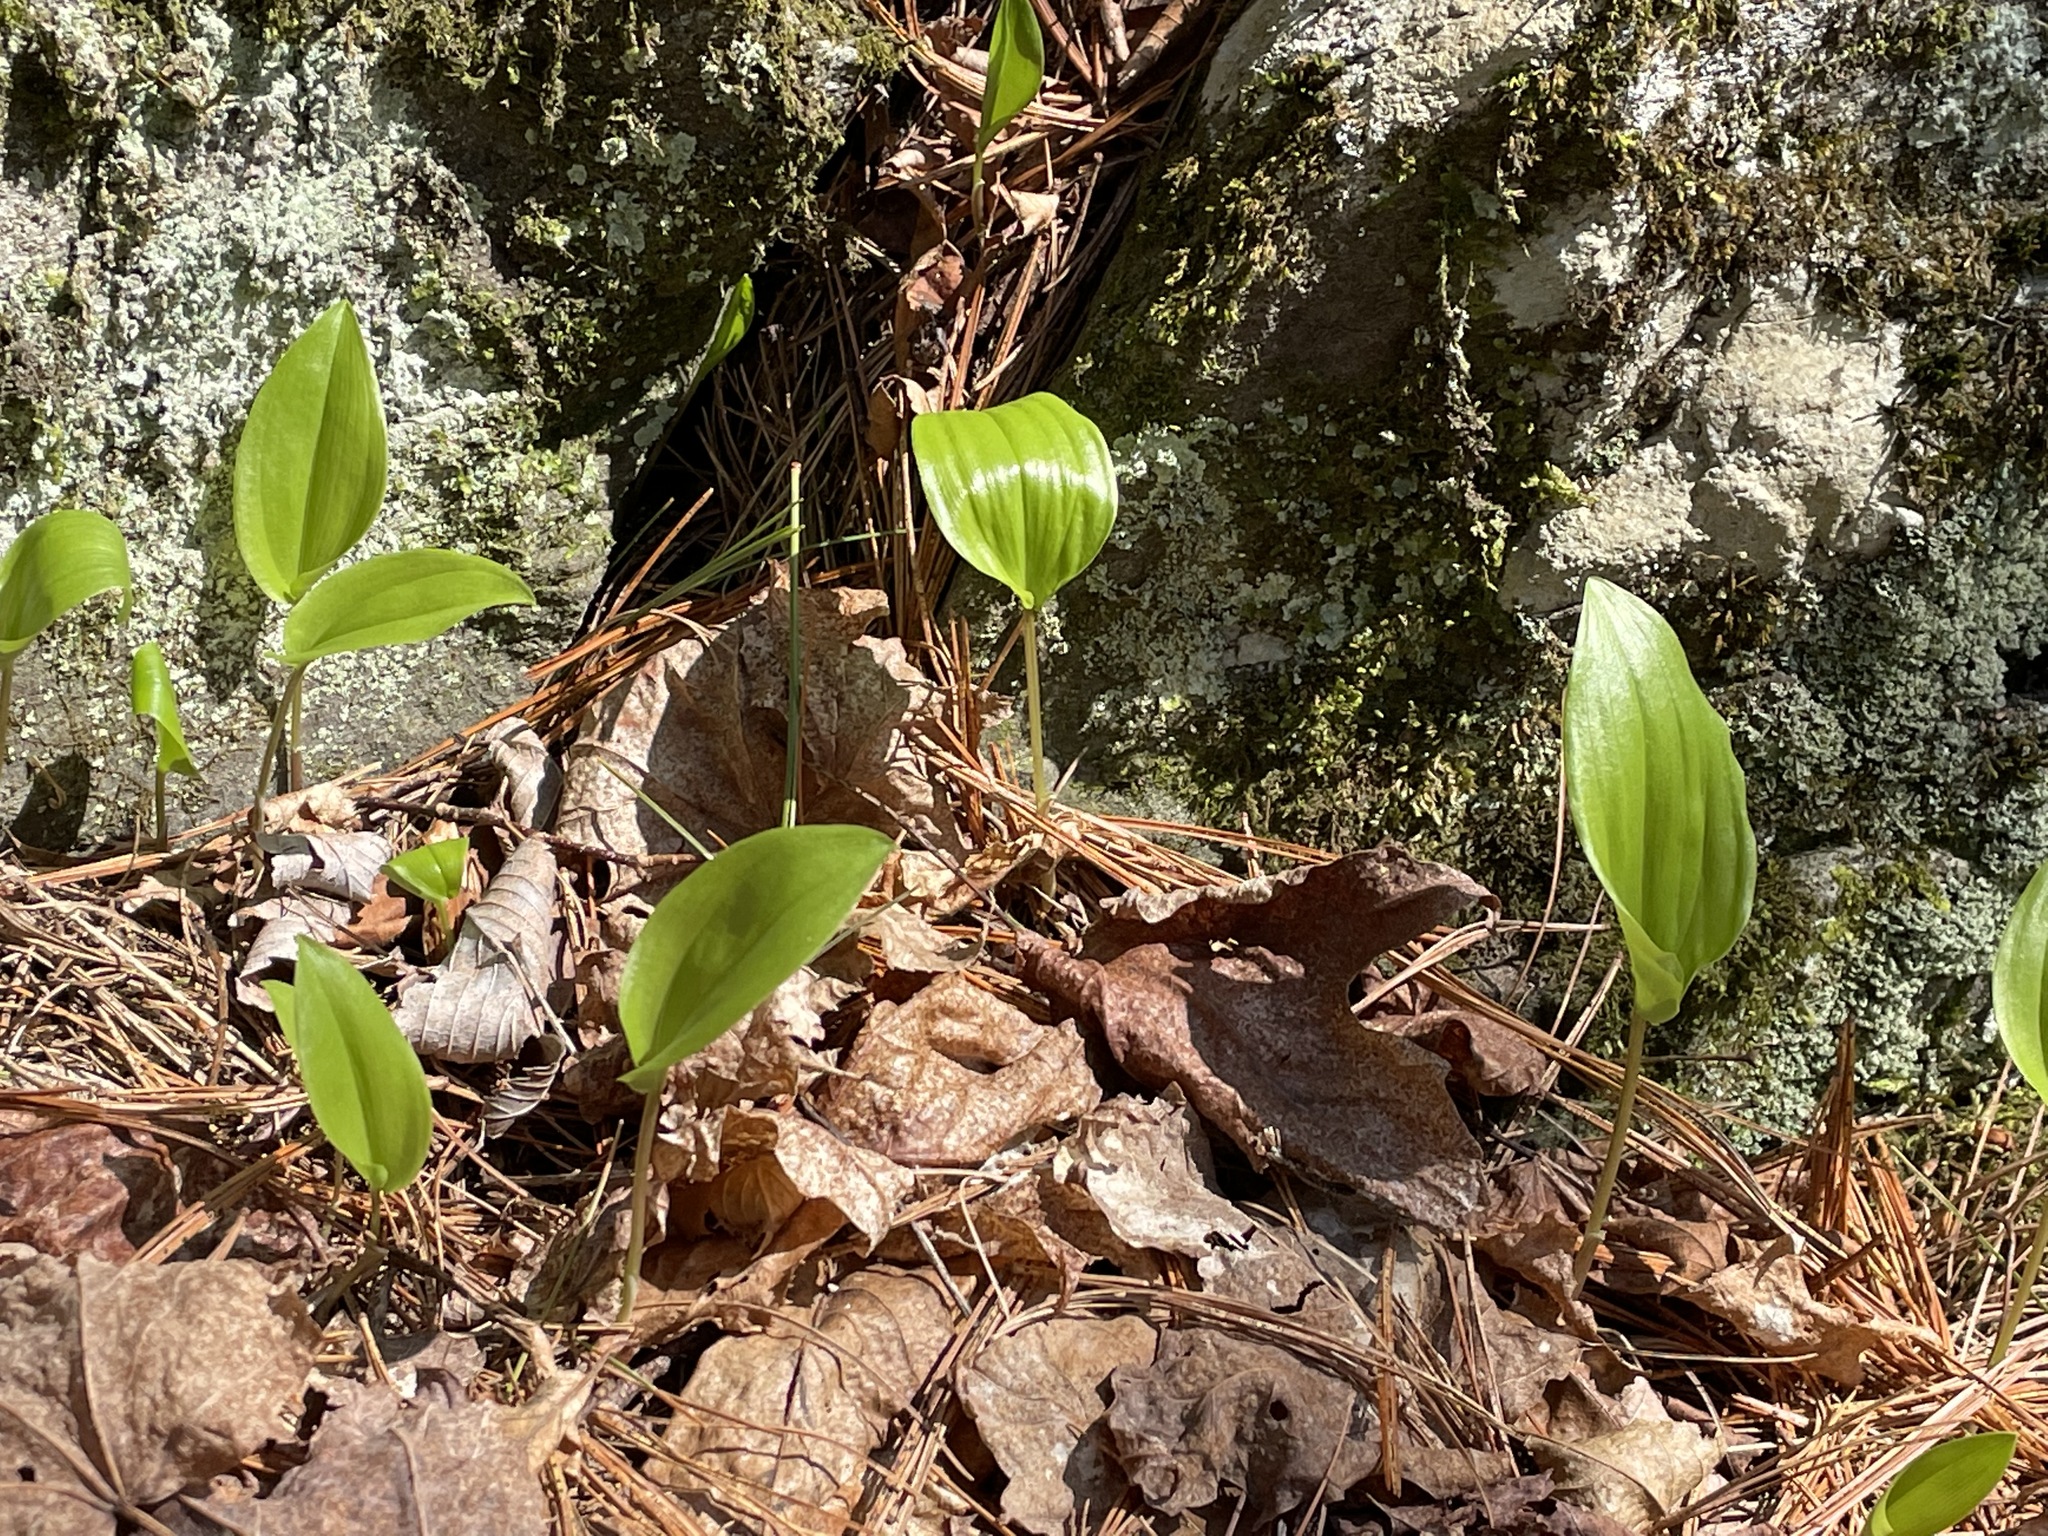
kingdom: Plantae
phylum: Tracheophyta
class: Liliopsida
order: Asparagales
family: Asparagaceae
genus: Maianthemum
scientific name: Maianthemum canadense
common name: False lily-of-the-valley
